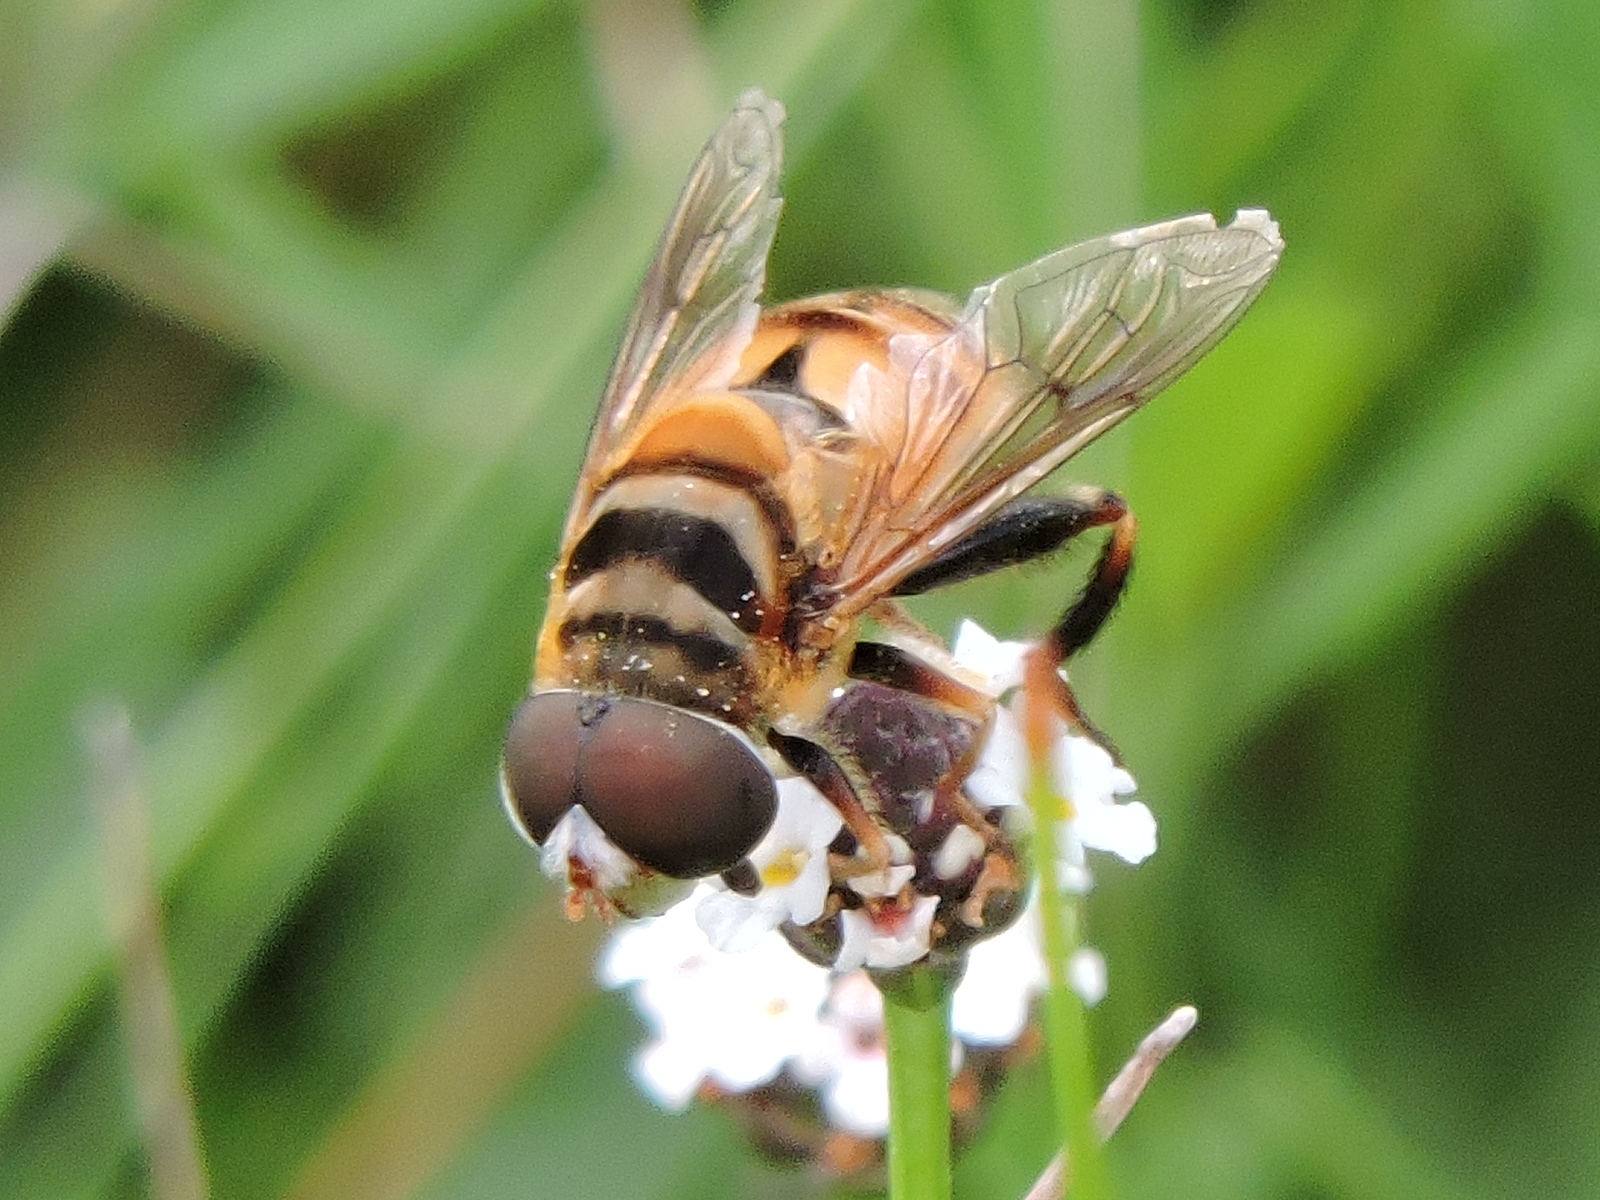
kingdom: Animalia
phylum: Arthropoda
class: Insecta
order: Diptera
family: Syrphidae
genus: Palpada
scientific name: Palpada vinetorum
